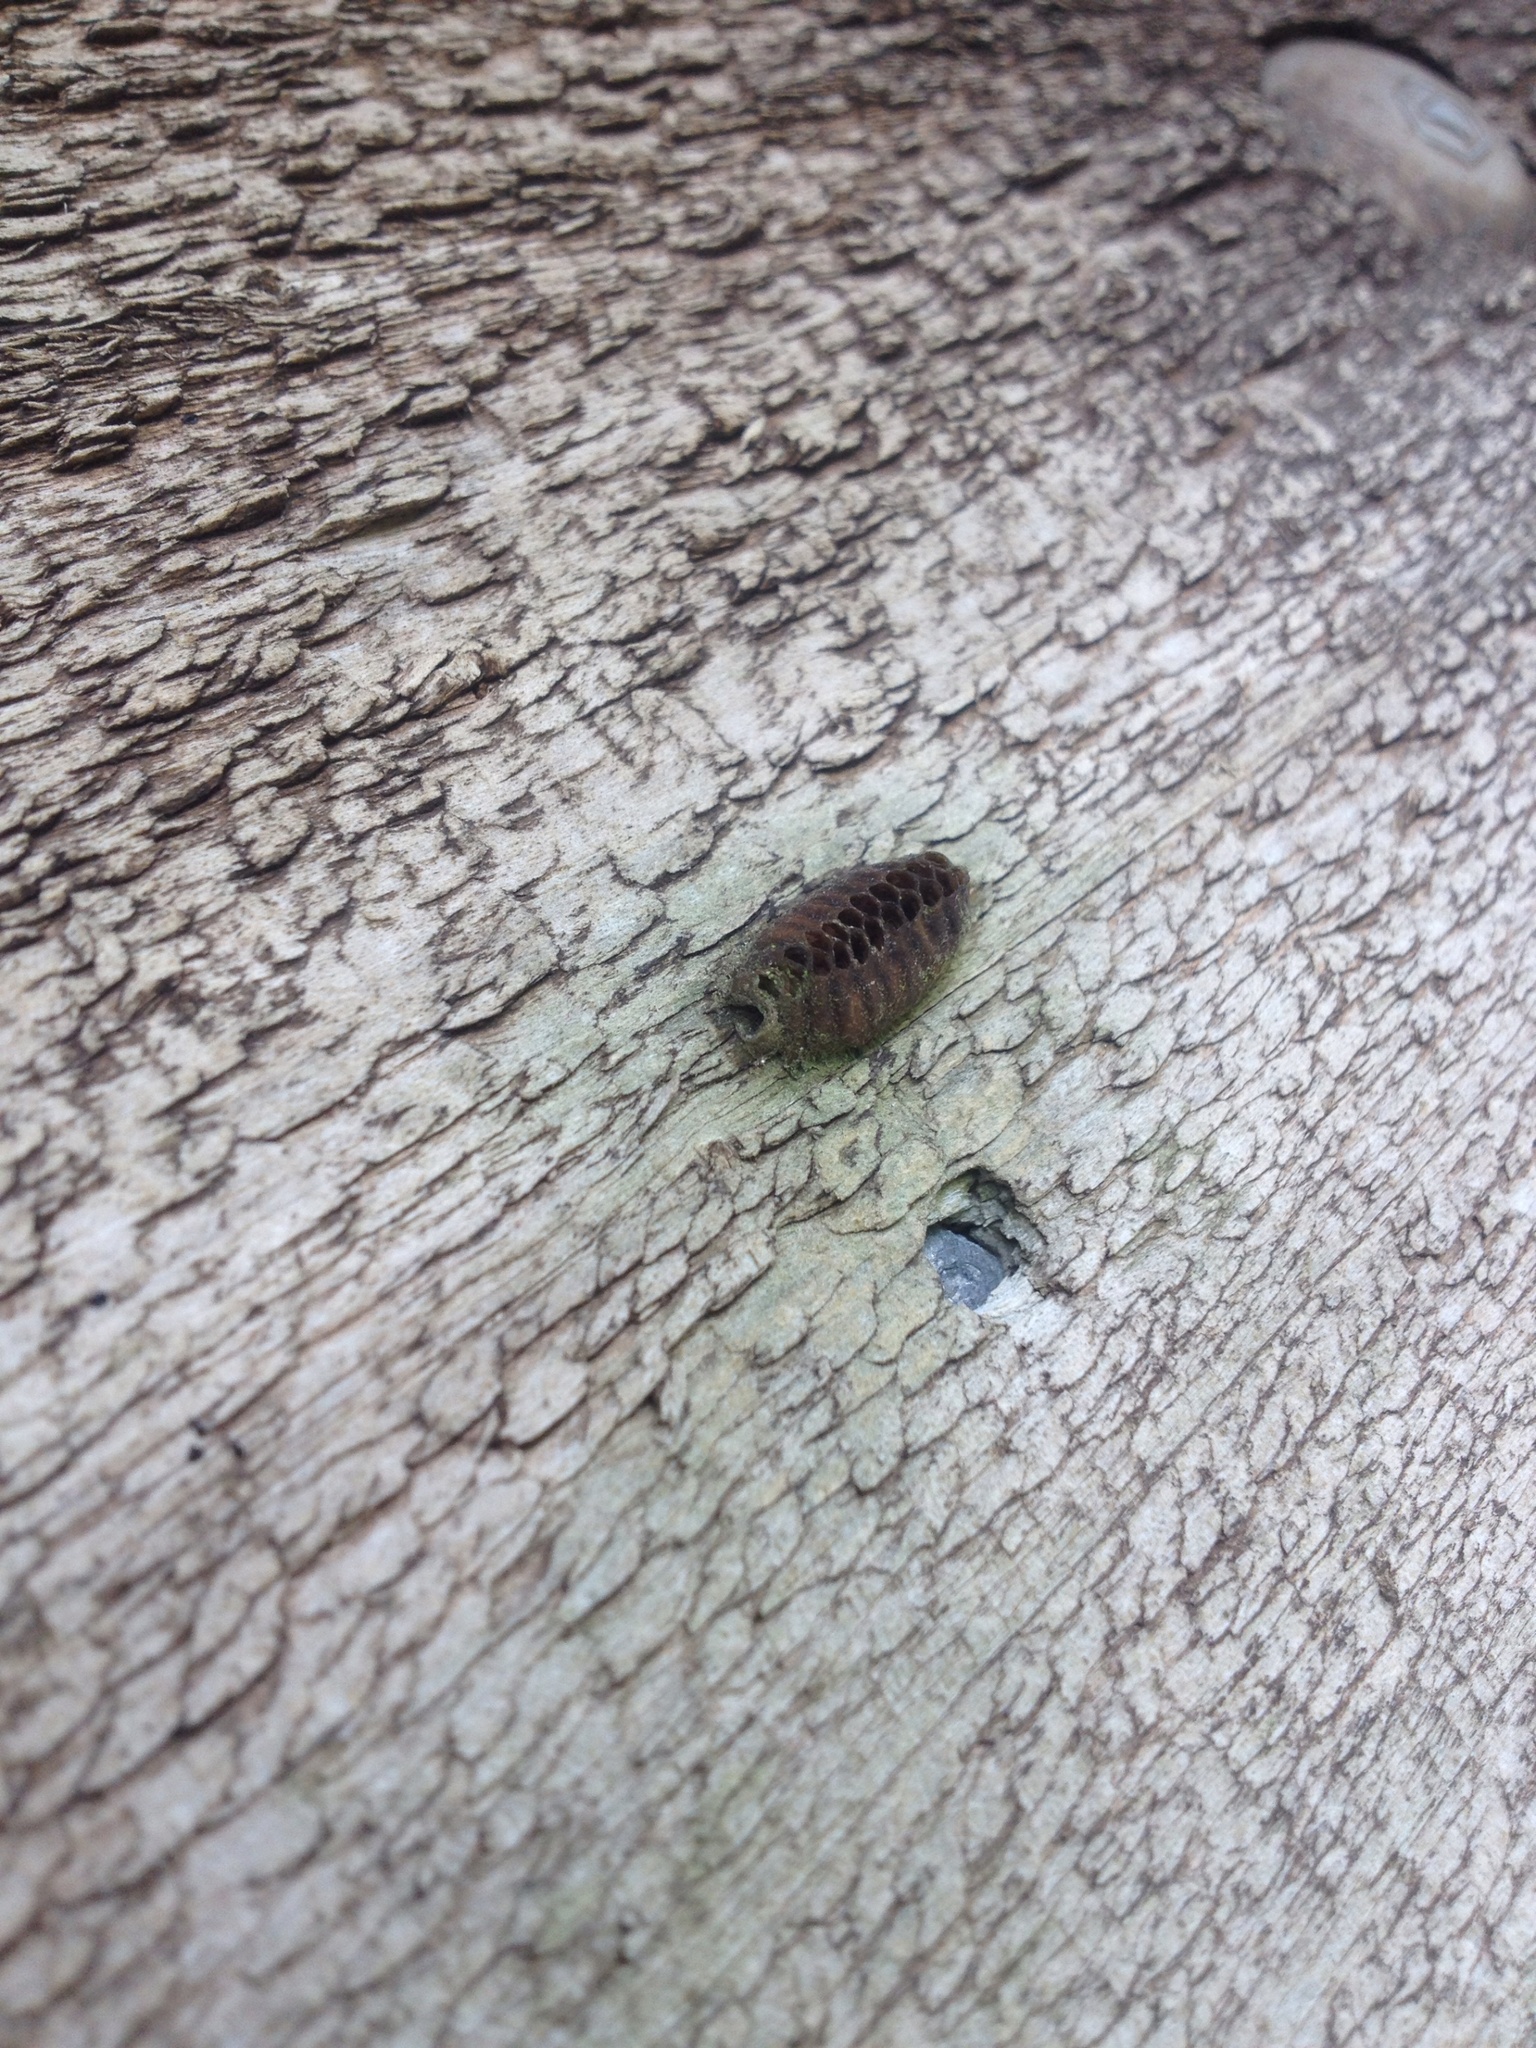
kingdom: Animalia
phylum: Arthropoda
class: Insecta
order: Mantodea
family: Mantidae
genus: Orthodera
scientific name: Orthodera novaezealandiae
